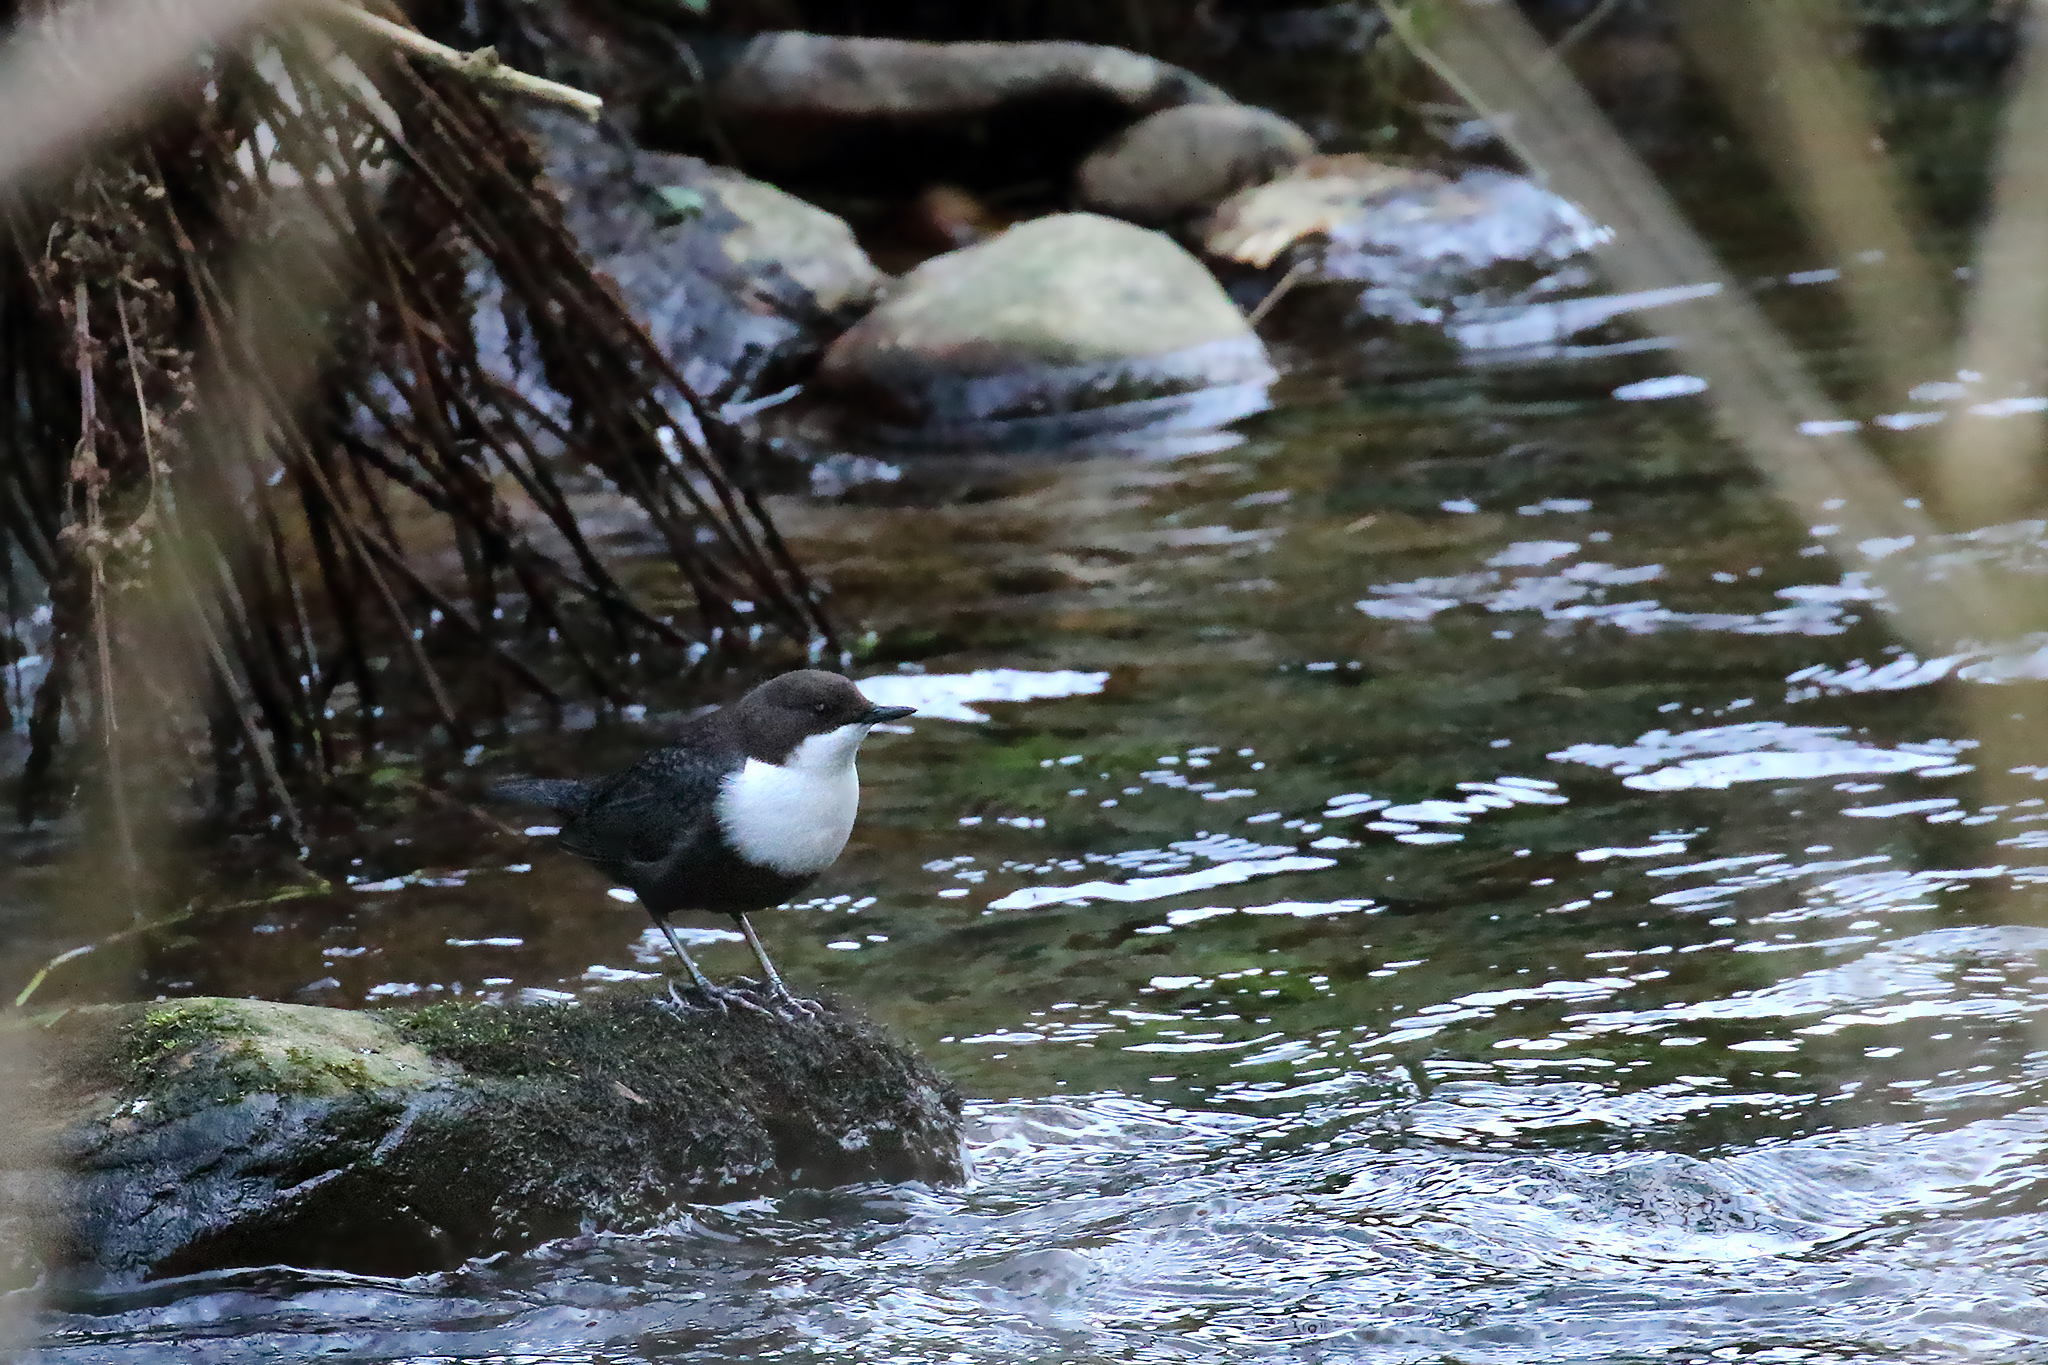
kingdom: Animalia
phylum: Chordata
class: Aves
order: Passeriformes
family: Cinclidae
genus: Cinclus
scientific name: Cinclus cinclus
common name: White-throated dipper
